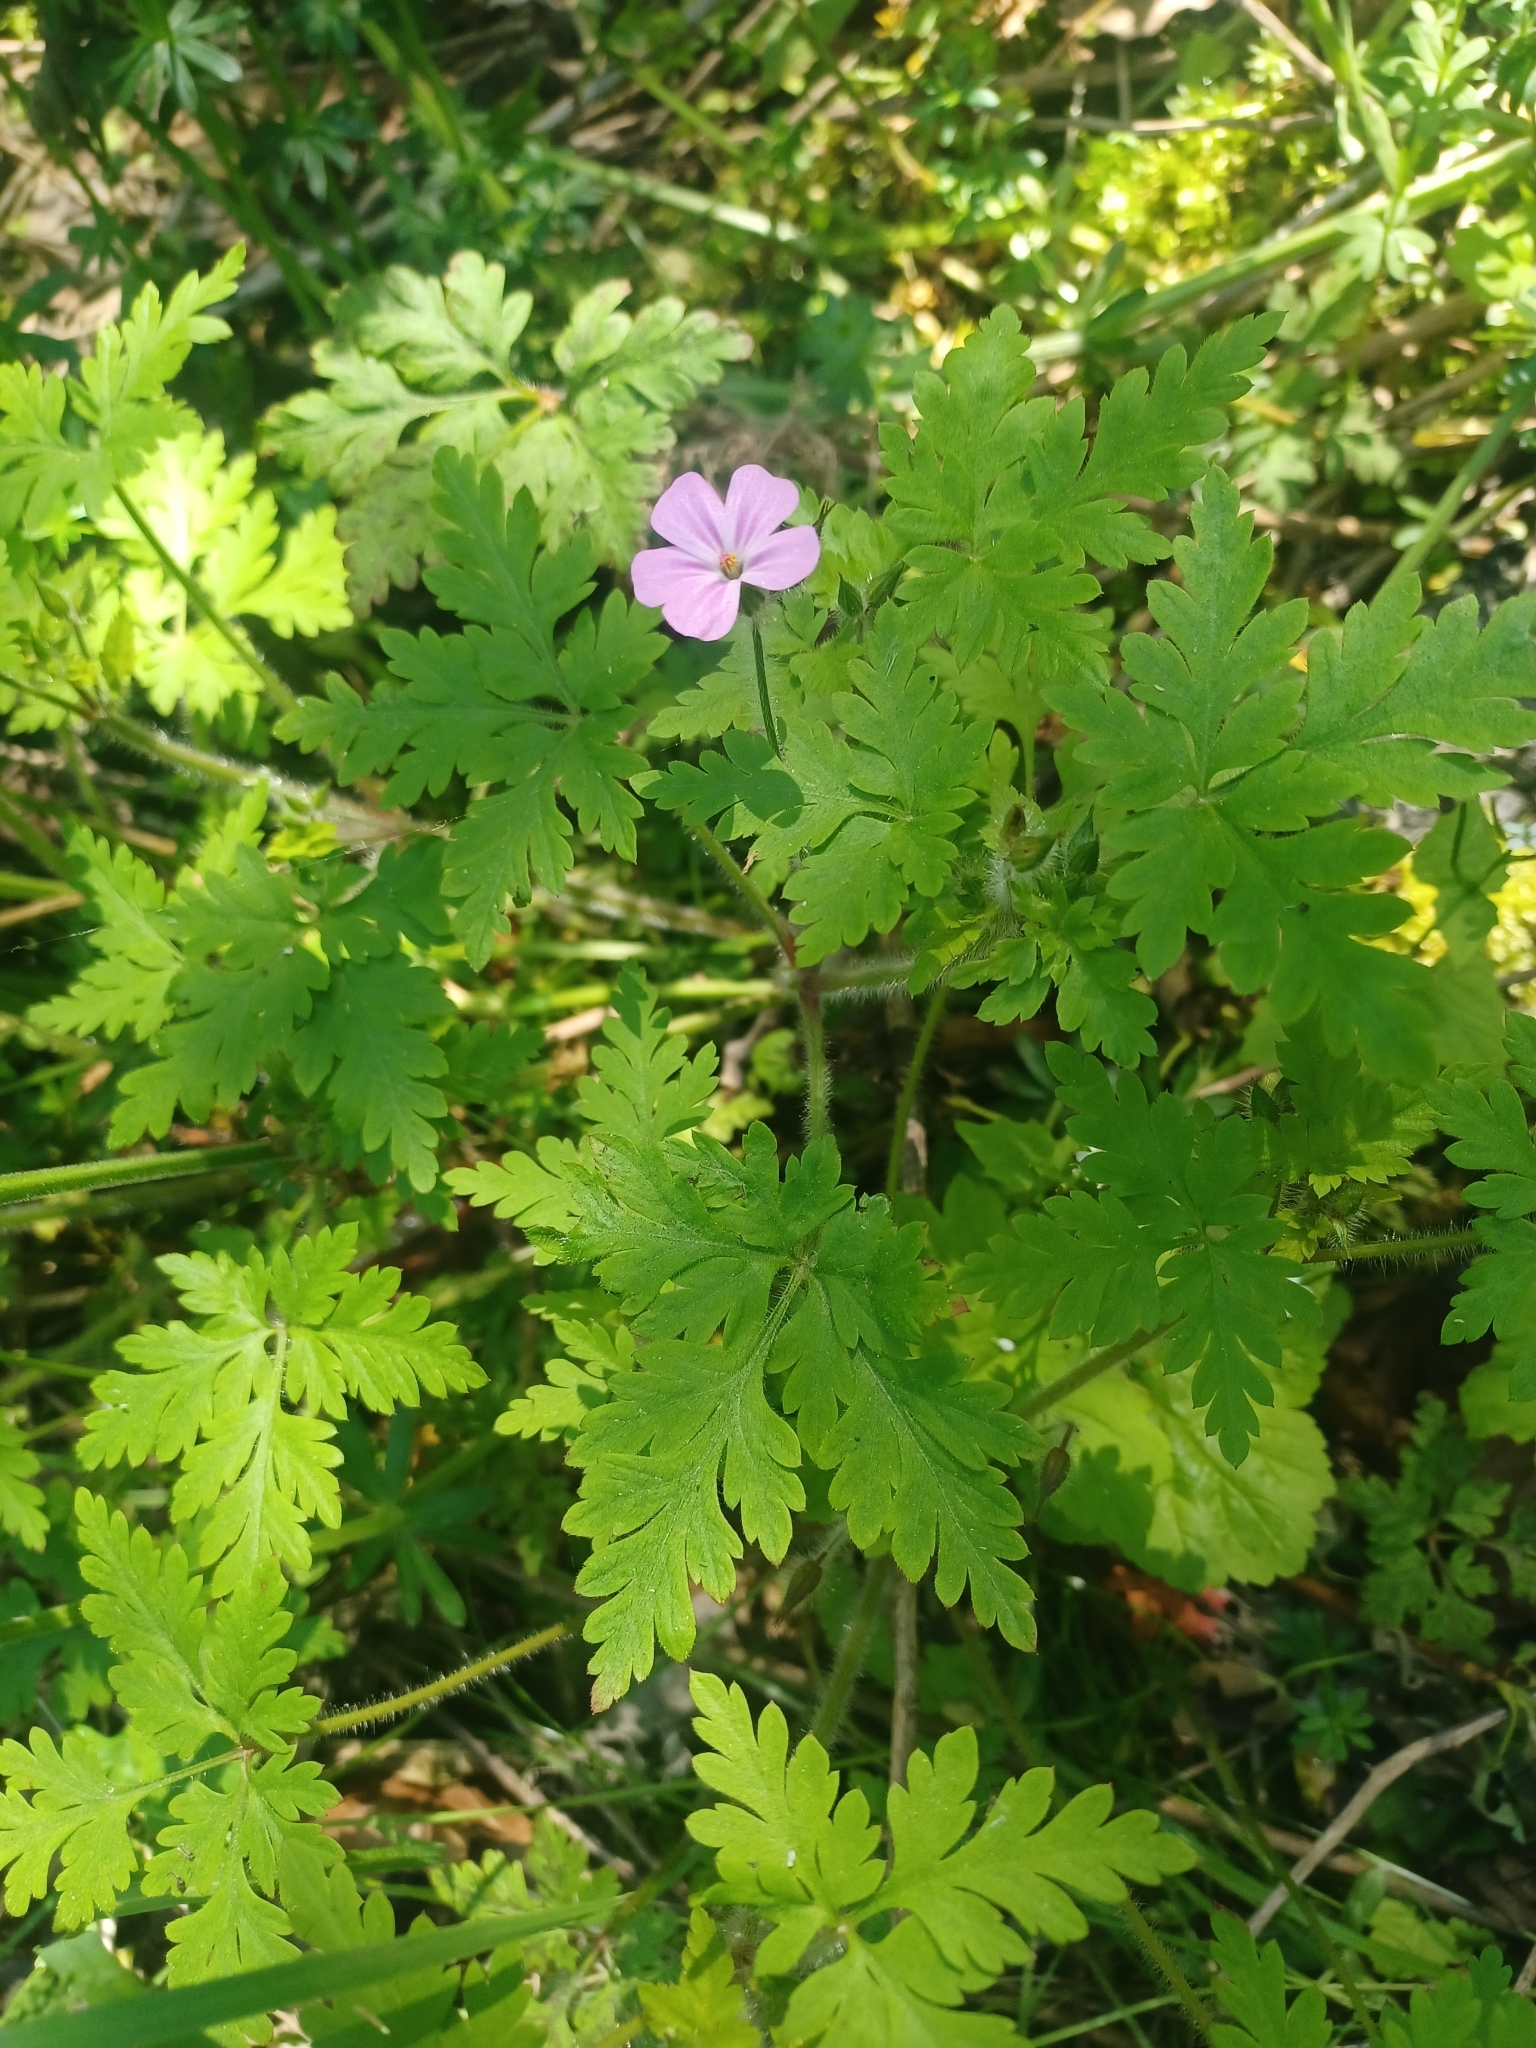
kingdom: Plantae
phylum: Tracheophyta
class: Magnoliopsida
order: Geraniales
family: Geraniaceae
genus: Geranium
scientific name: Geranium robertianum
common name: Herb-robert
